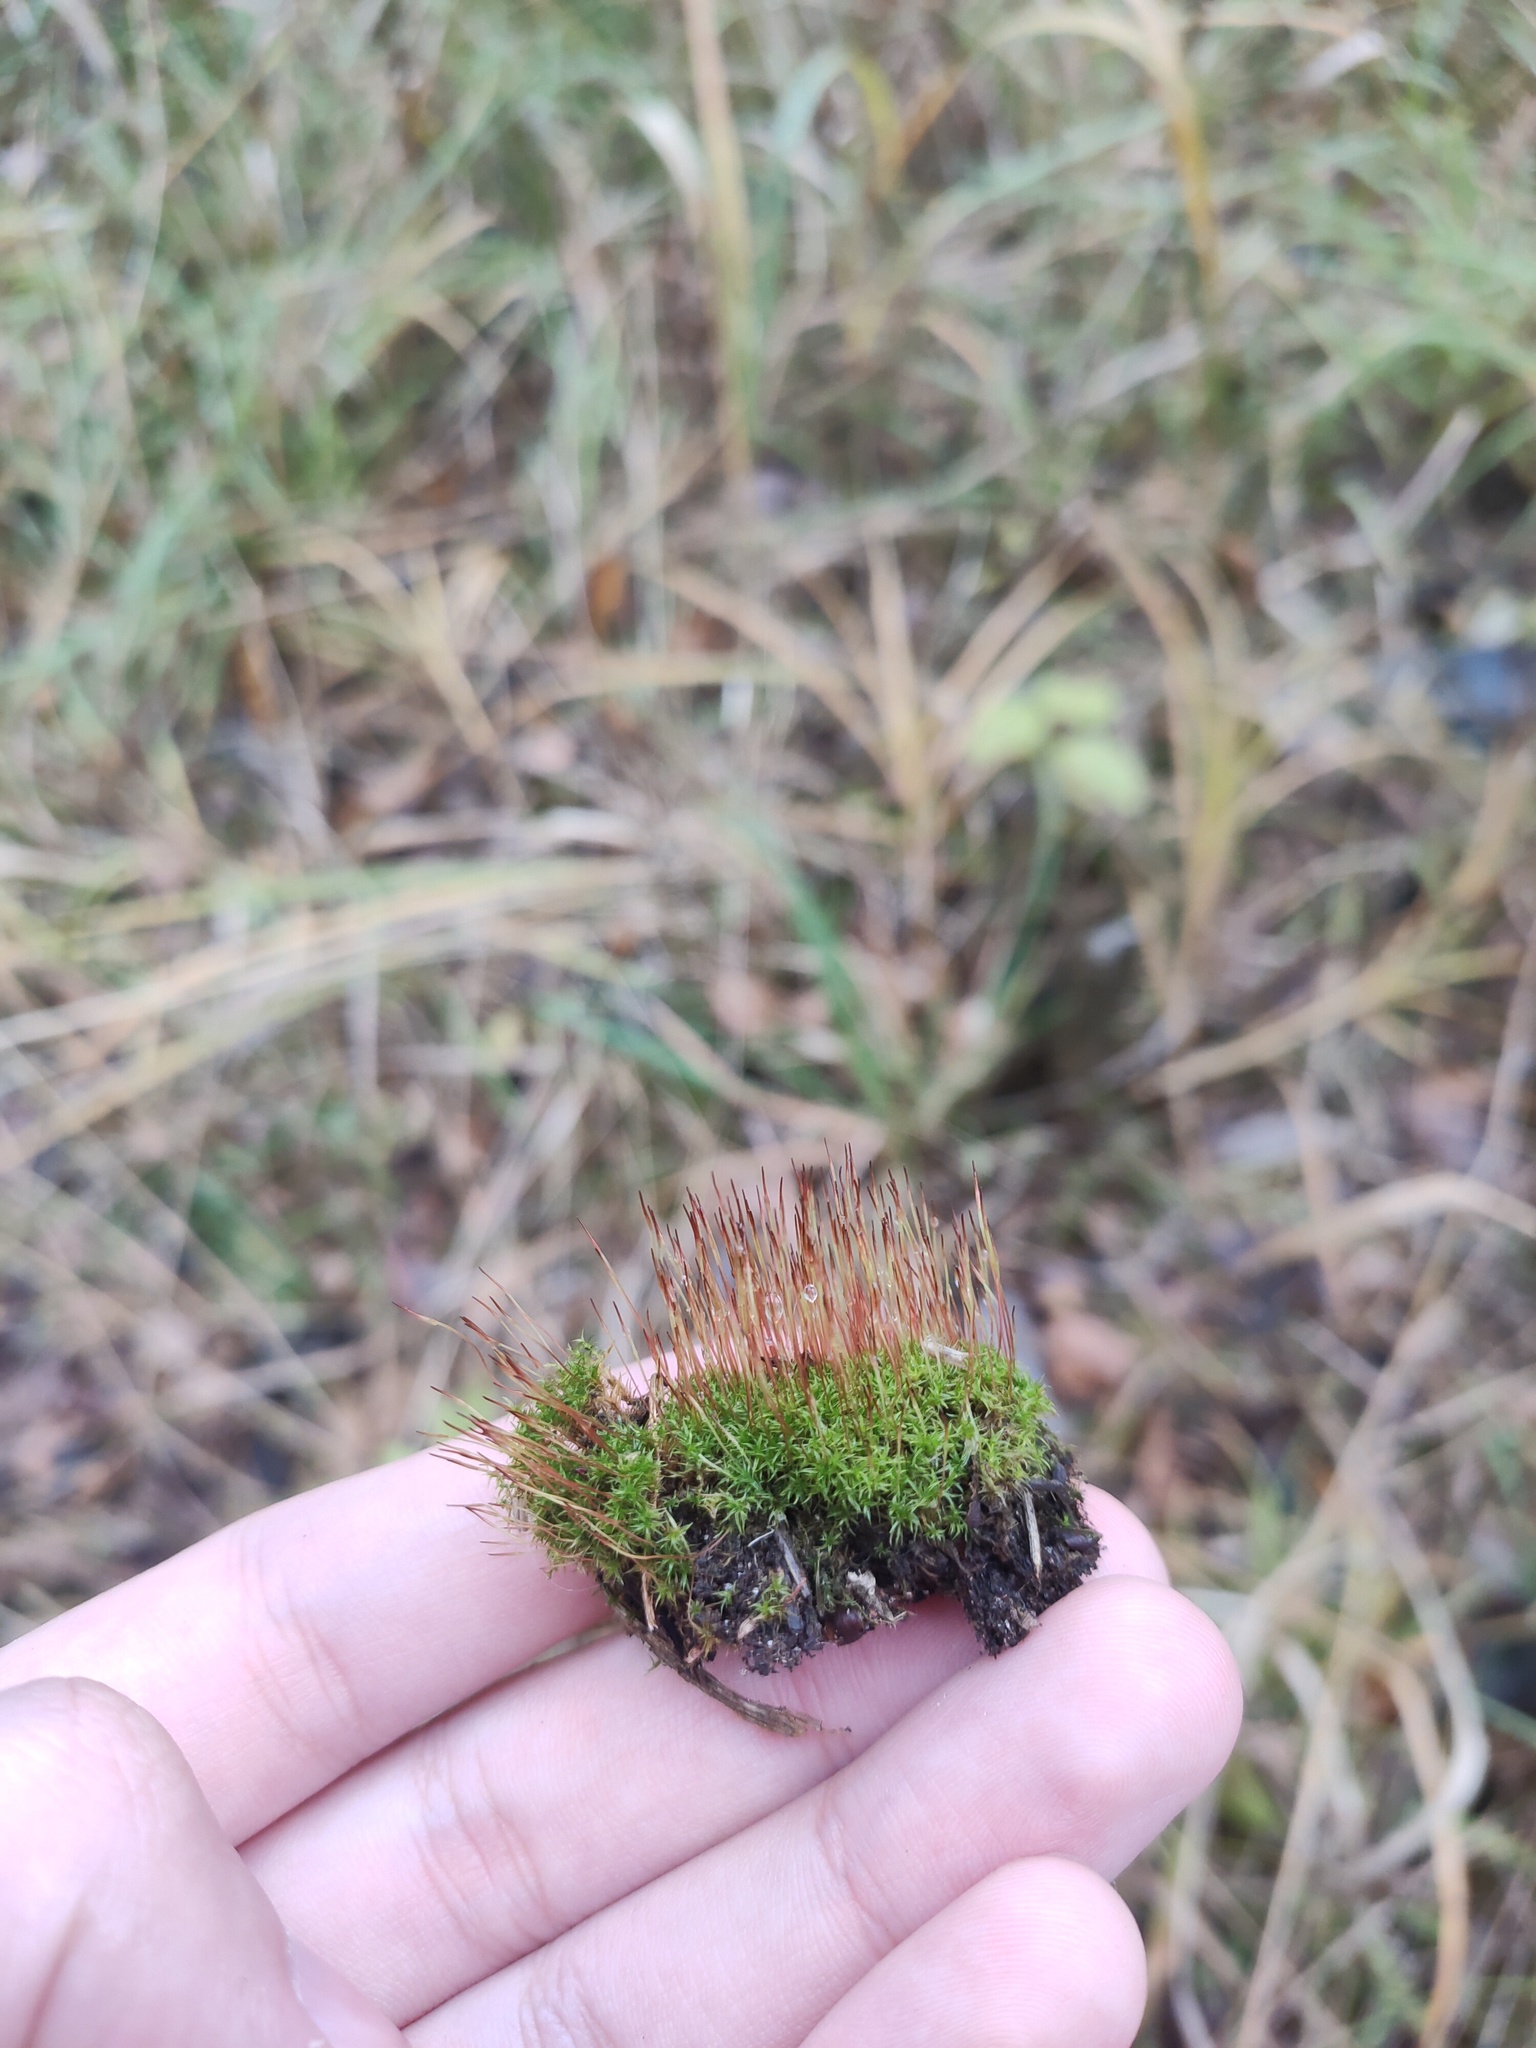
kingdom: Plantae
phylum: Bryophyta
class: Bryopsida
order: Dicranales
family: Ditrichaceae
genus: Ceratodon
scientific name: Ceratodon purpureus
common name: Redshank
